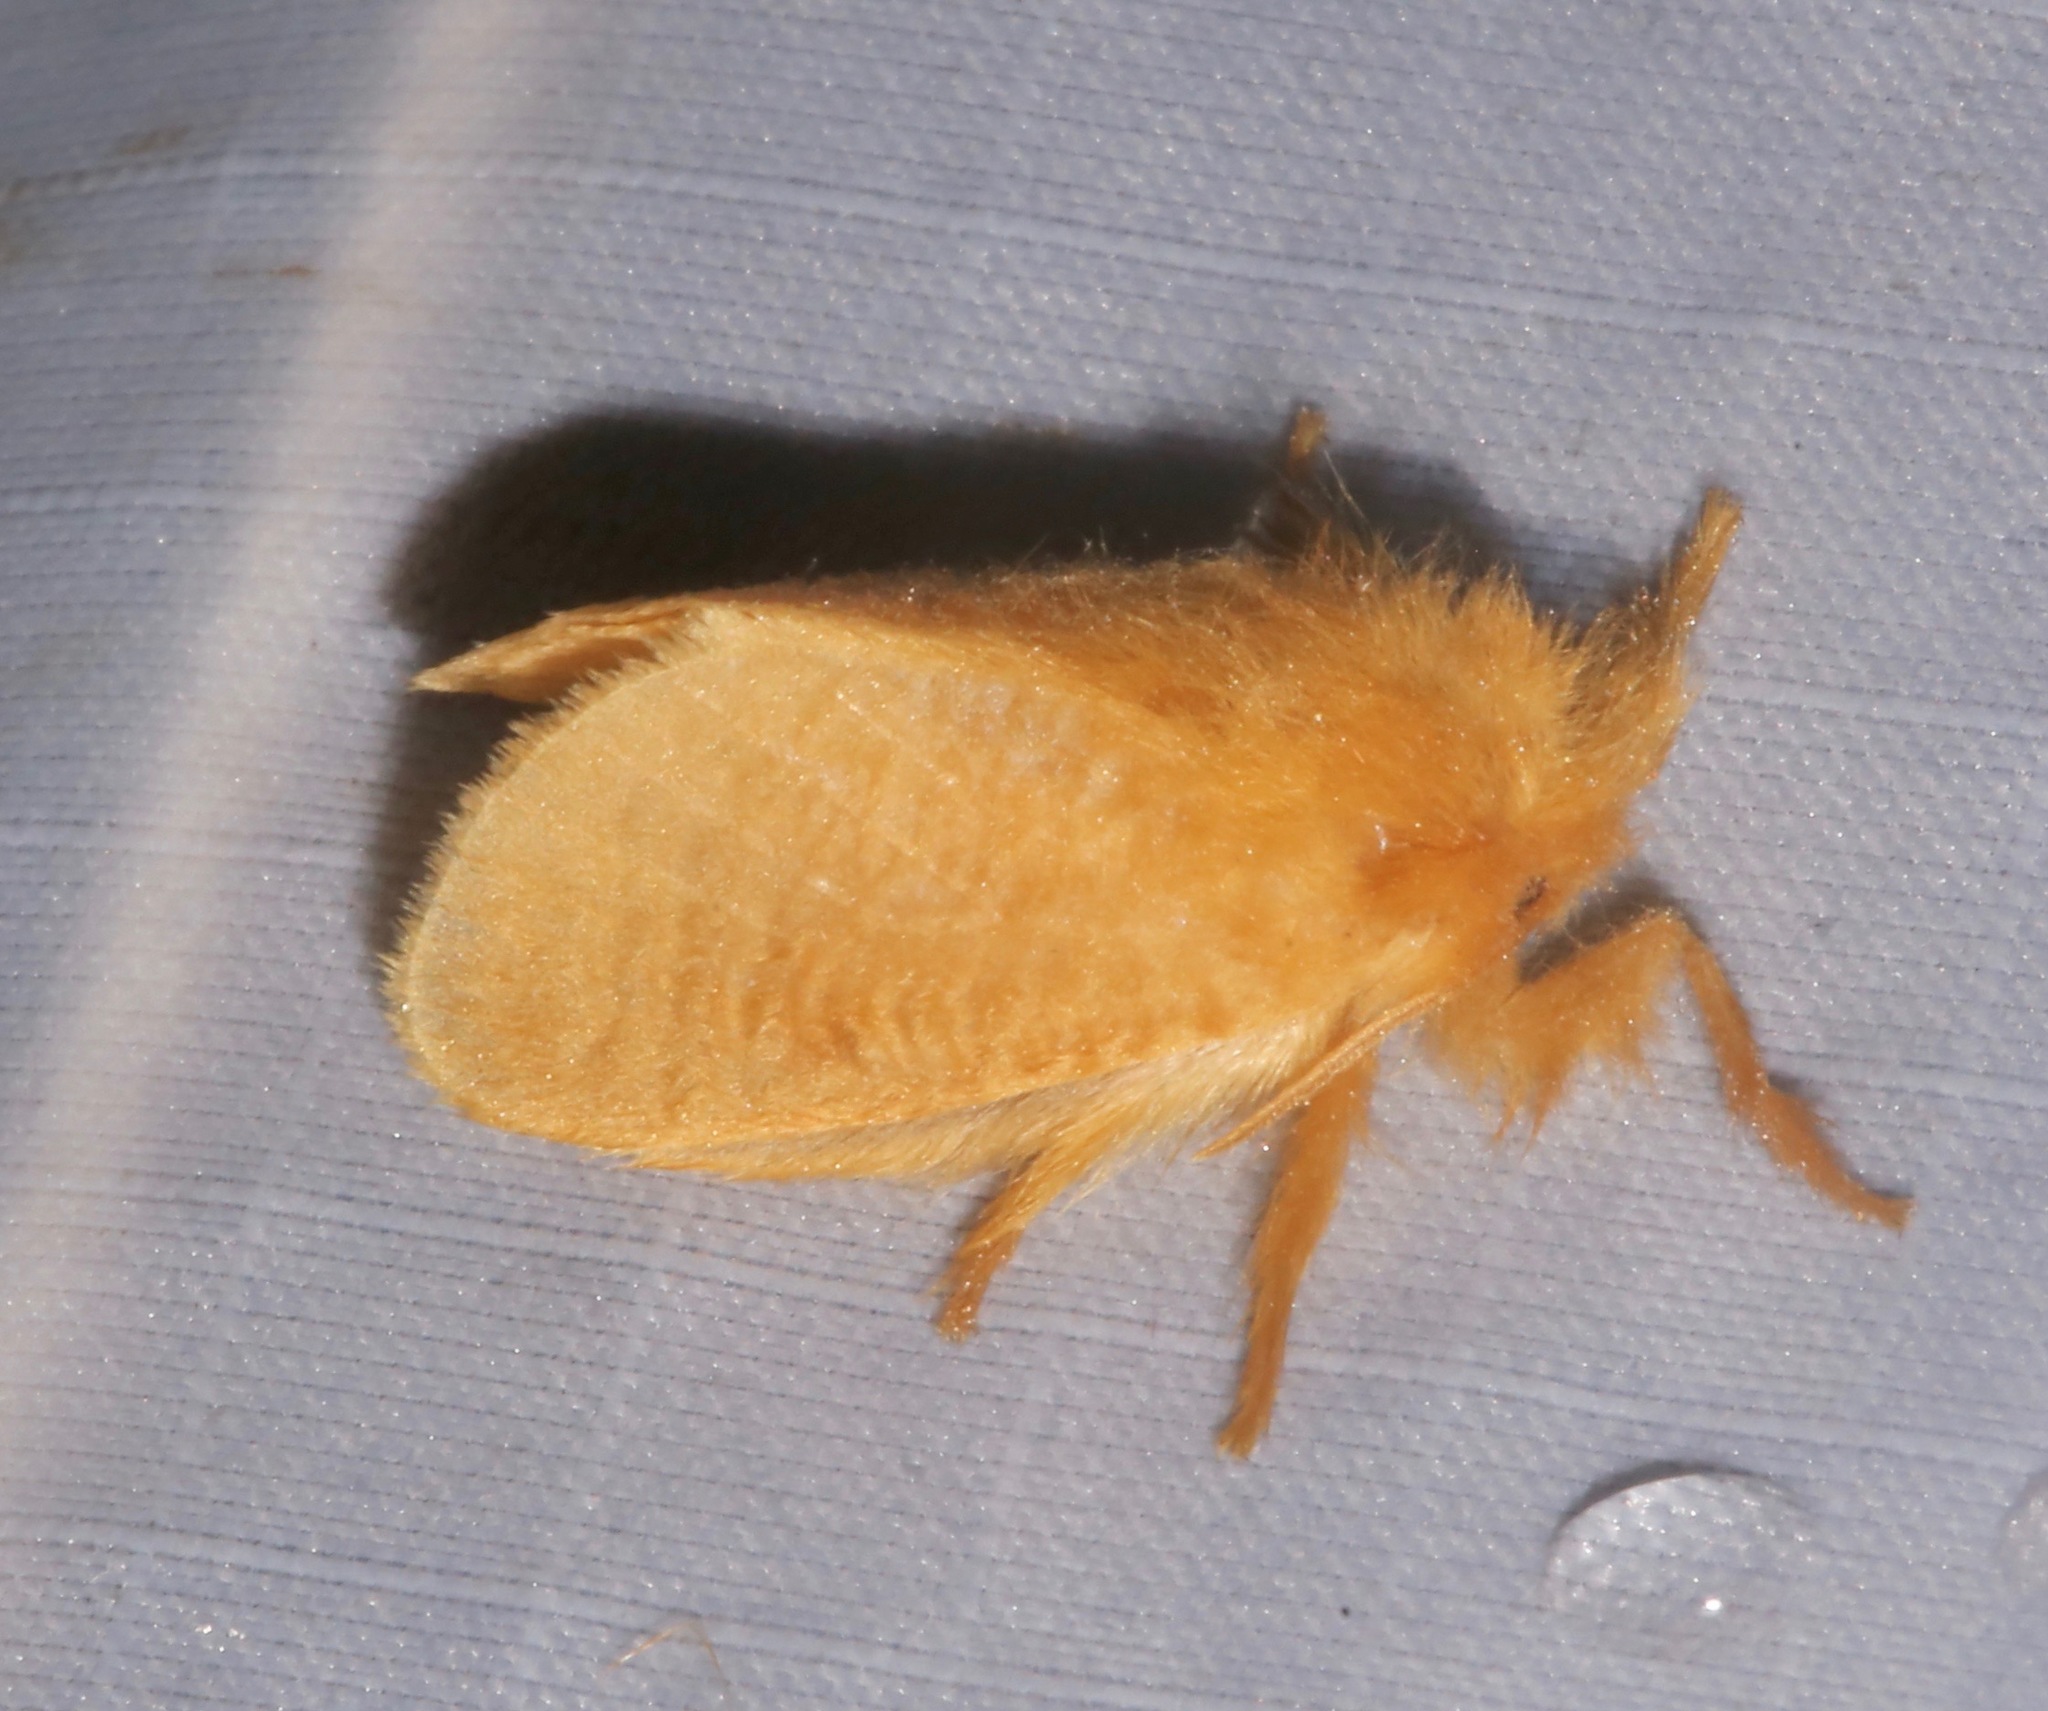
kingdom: Animalia
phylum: Arthropoda
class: Insecta
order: Lepidoptera
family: Megalopygidae
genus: Megalopyge
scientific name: Megalopyge pixidifera
